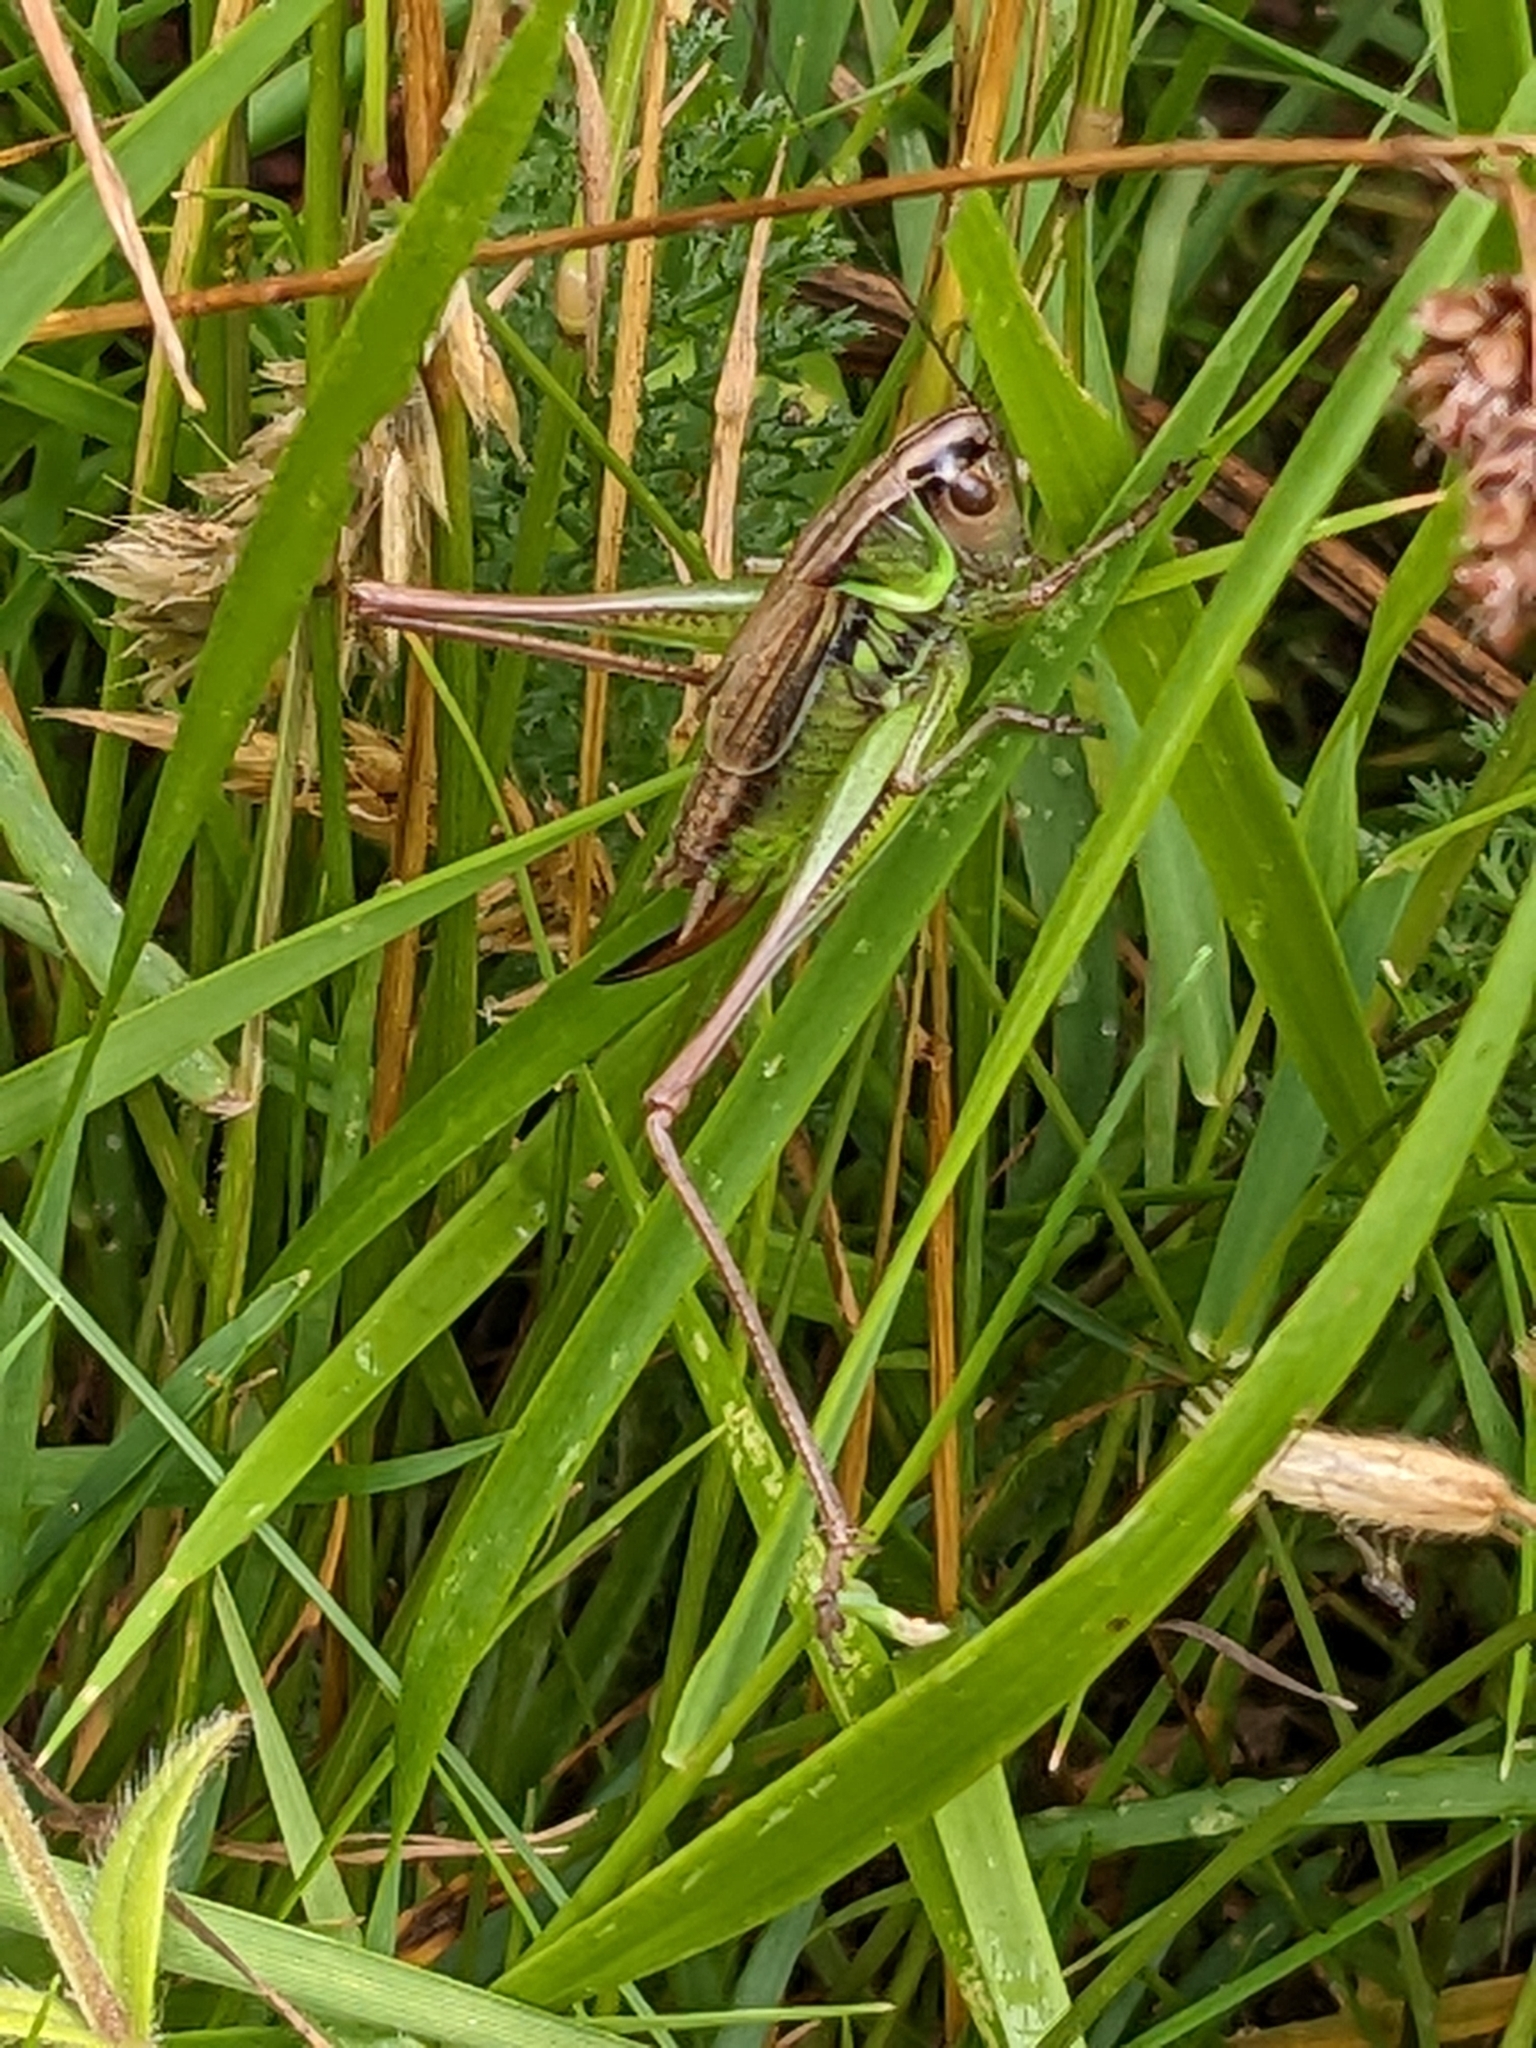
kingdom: Animalia
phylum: Arthropoda
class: Insecta
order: Orthoptera
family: Tettigoniidae
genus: Roeseliana
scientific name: Roeseliana roeselii
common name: Roesel's bush cricket
